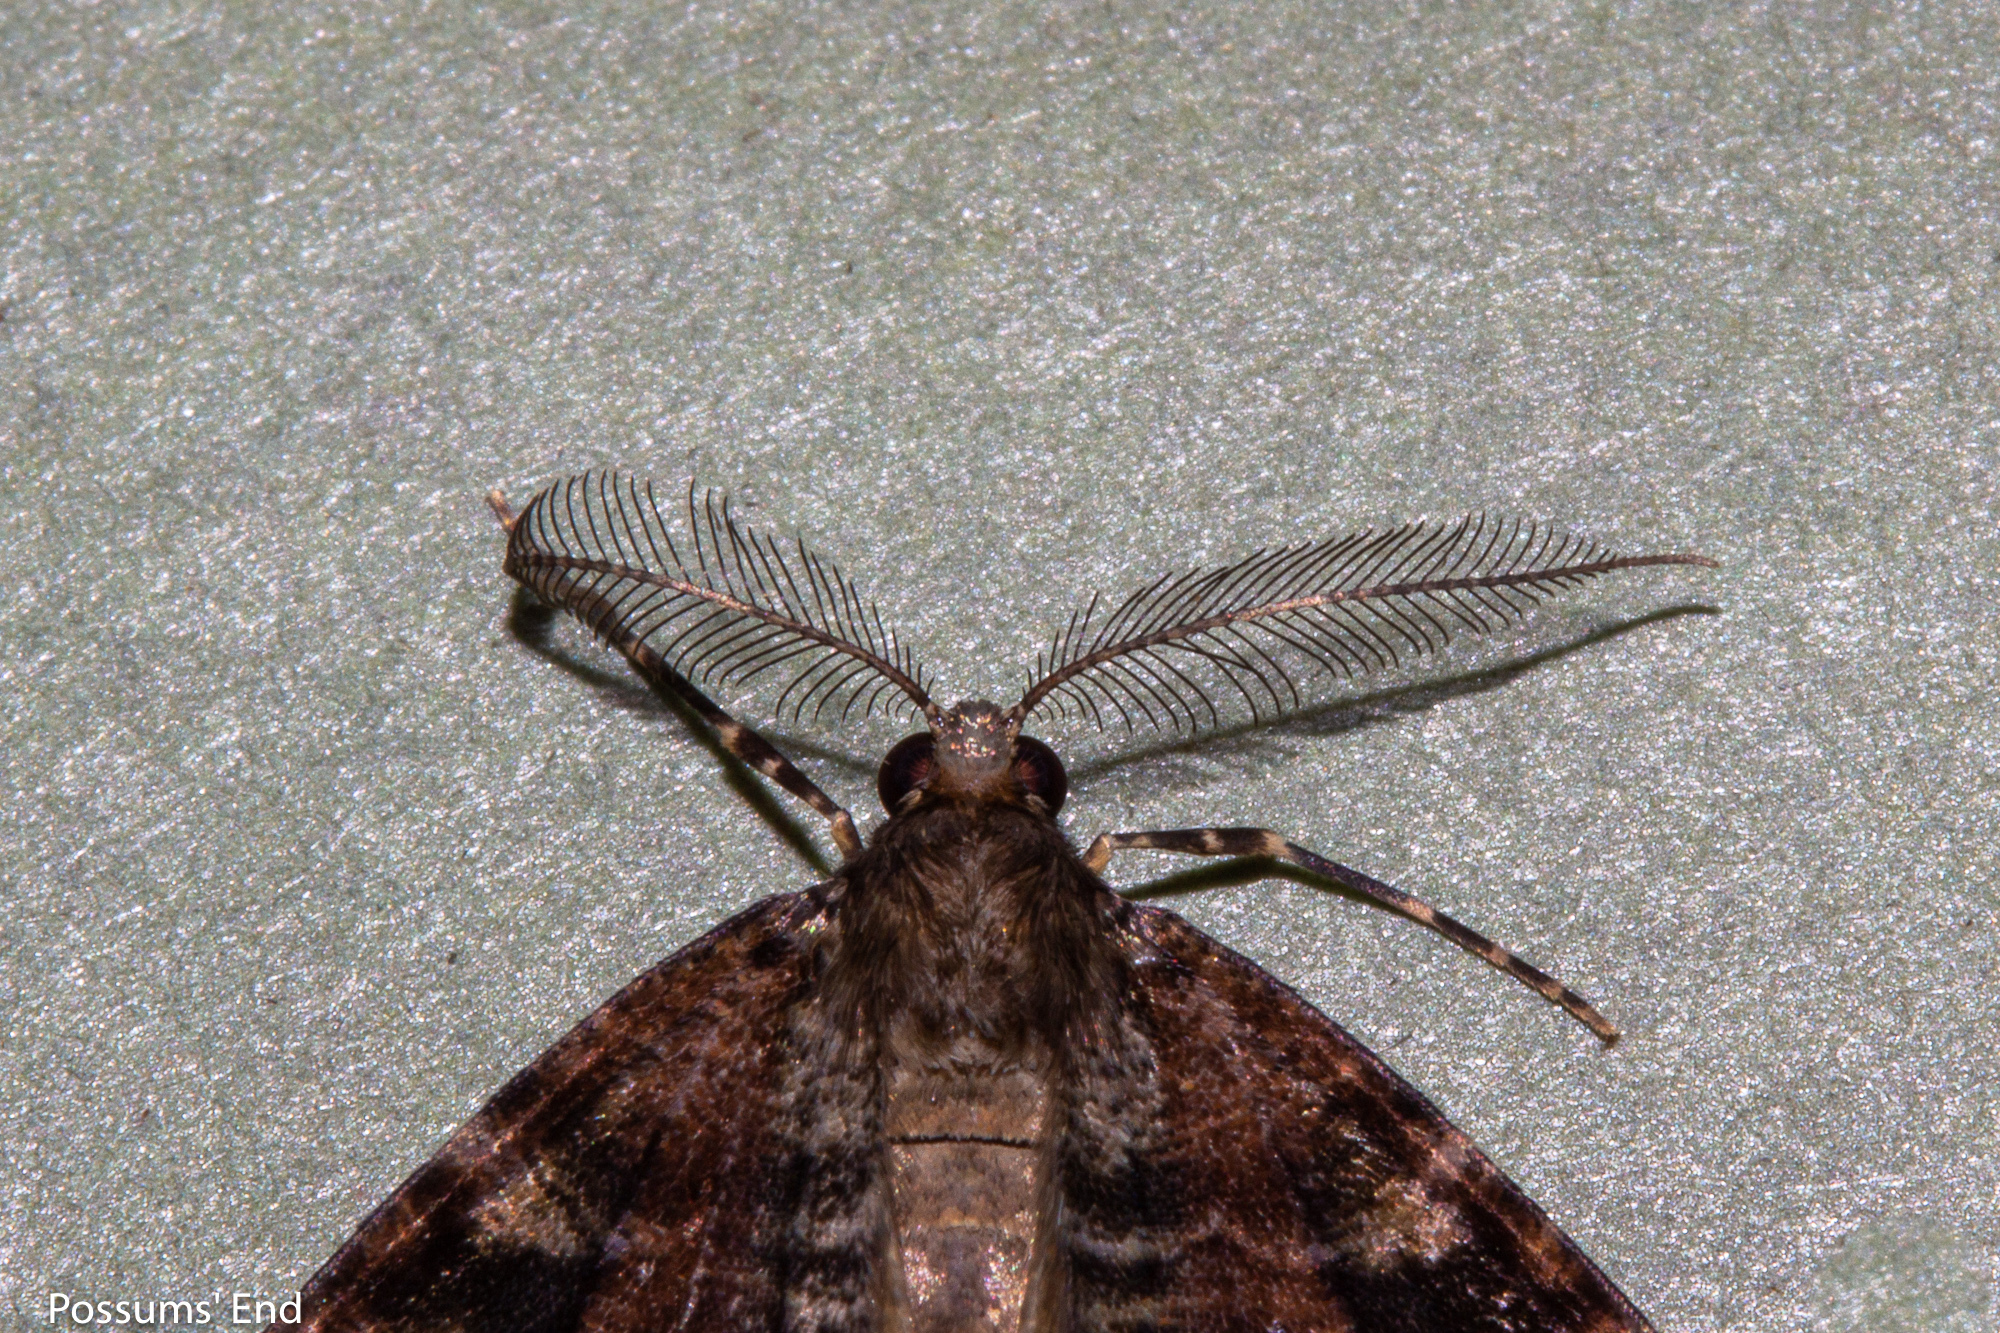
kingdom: Animalia
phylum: Arthropoda
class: Insecta
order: Lepidoptera
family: Geometridae
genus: Pseudocoremia
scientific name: Pseudocoremia productata
